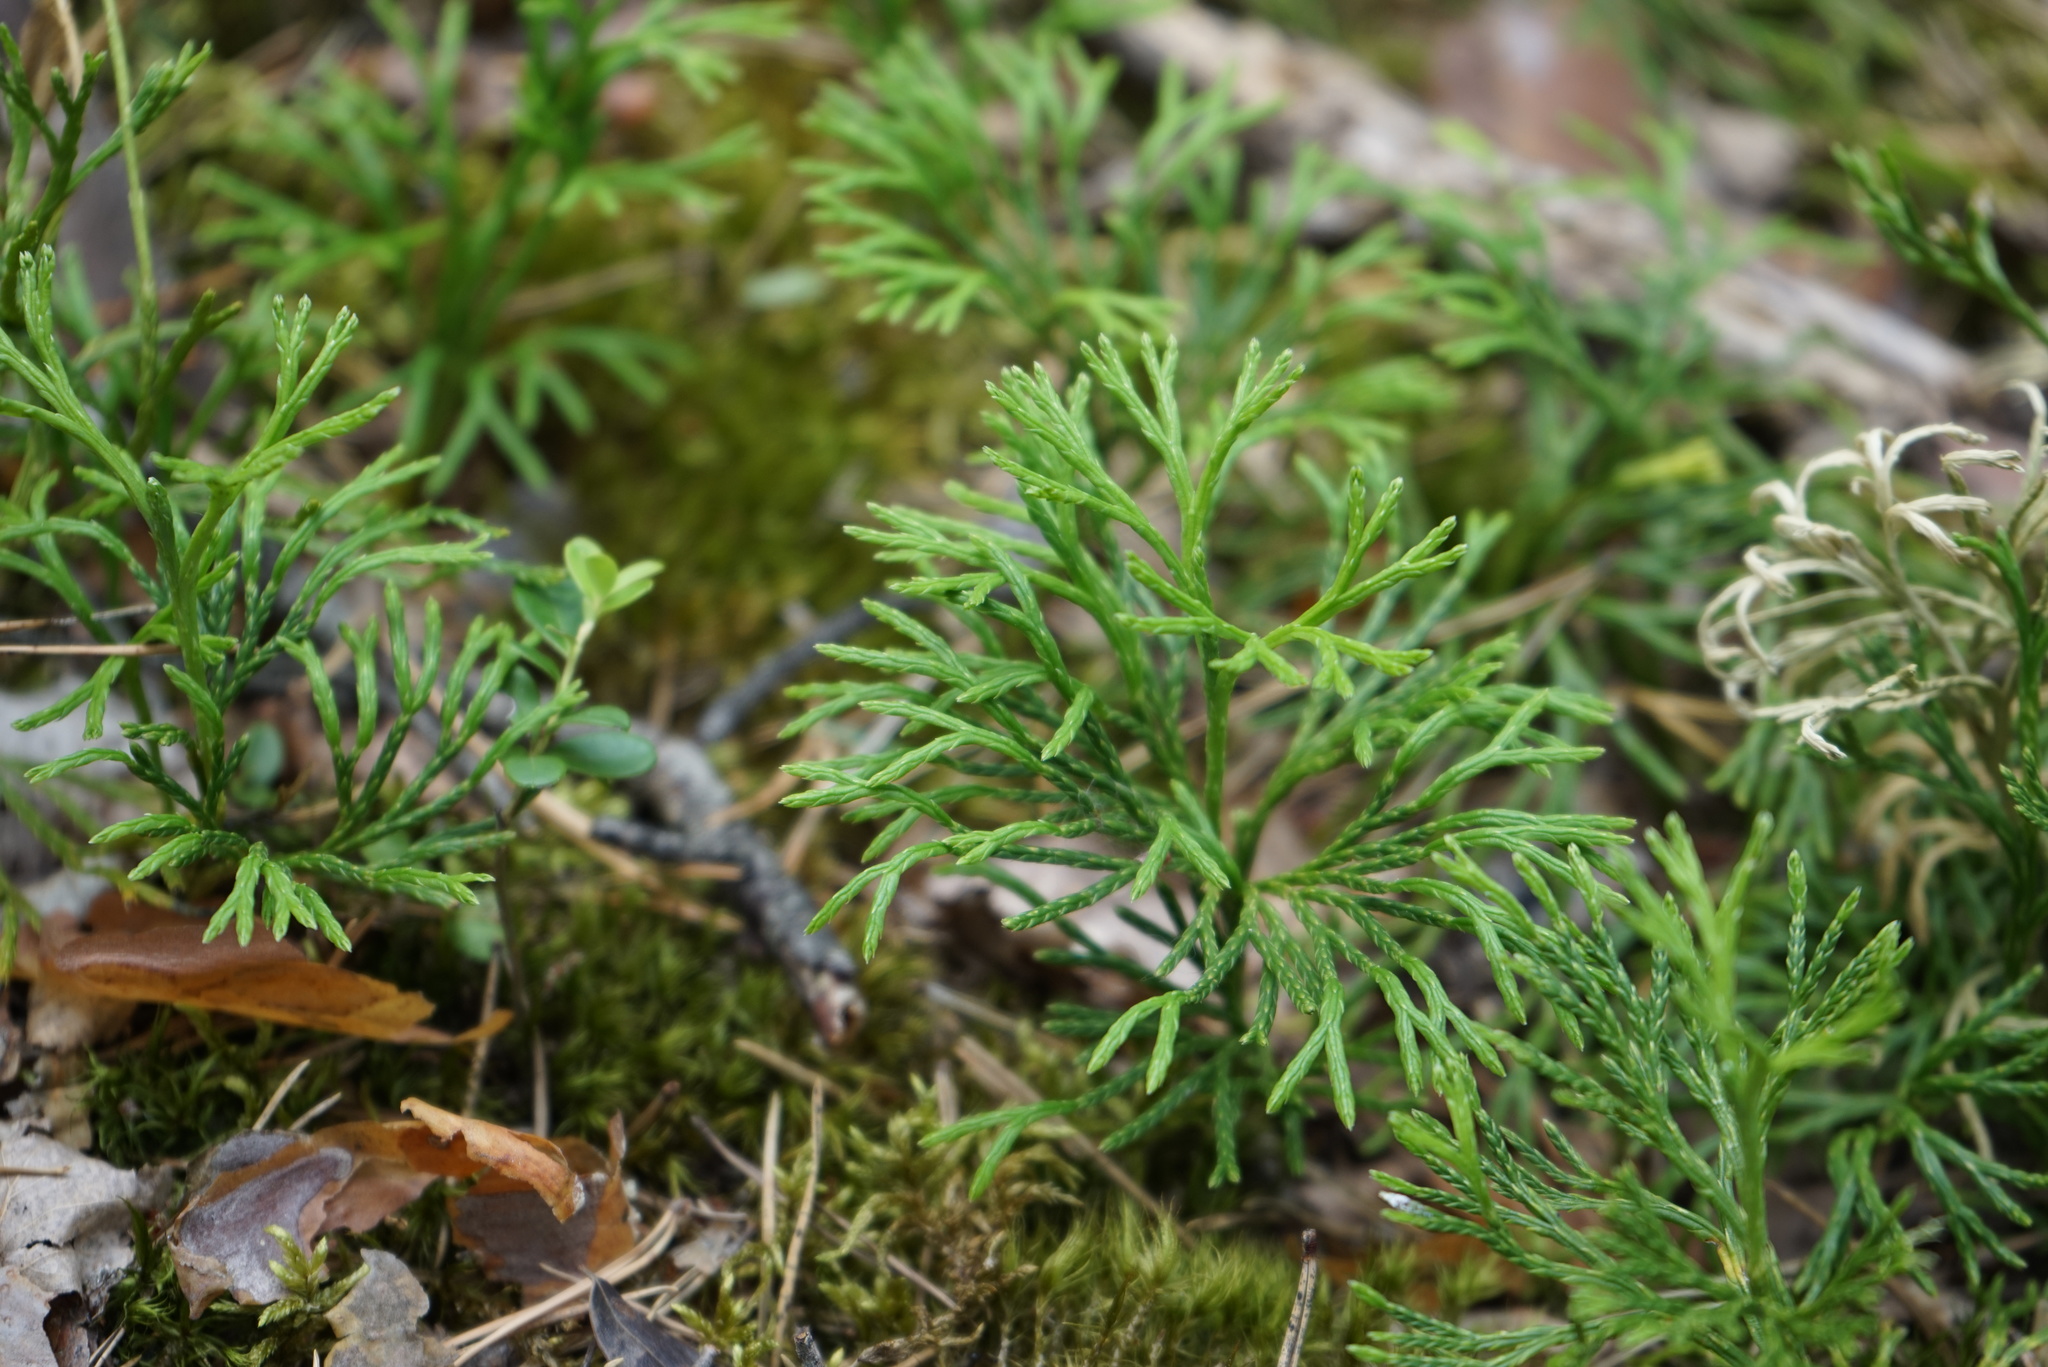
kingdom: Plantae
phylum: Tracheophyta
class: Lycopodiopsida
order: Lycopodiales
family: Lycopodiaceae
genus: Diphasiastrum
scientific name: Diphasiastrum complanatum
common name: Northern running-pine
